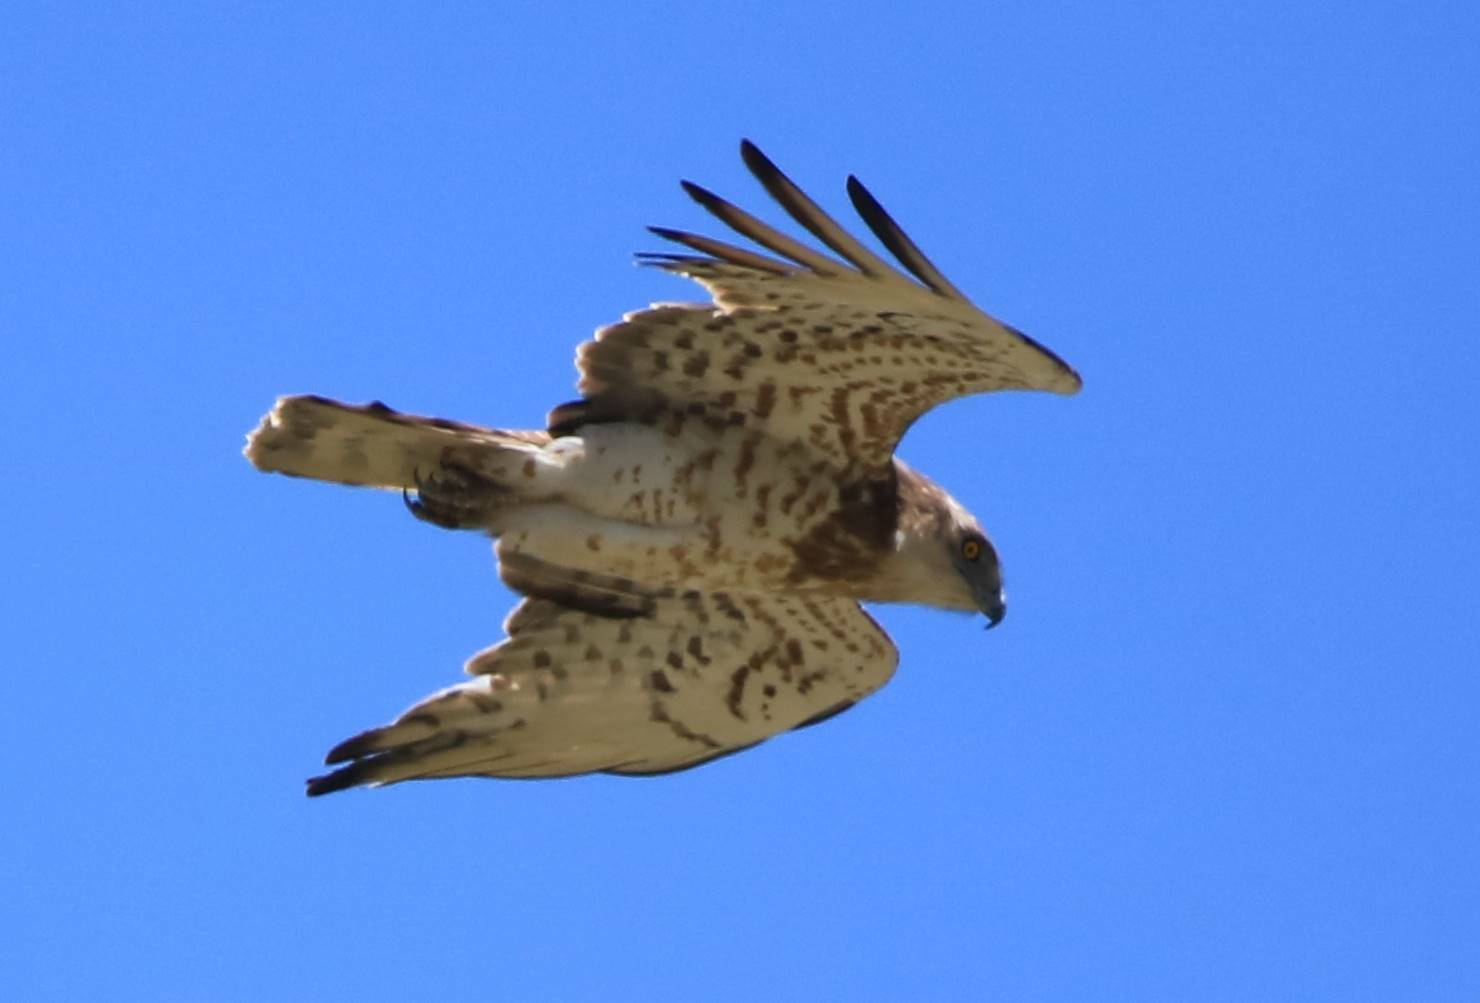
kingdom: Animalia
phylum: Chordata
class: Aves
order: Accipitriformes
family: Accipitridae
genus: Circaetus
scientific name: Circaetus gallicus
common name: Short-toed snake eagle
